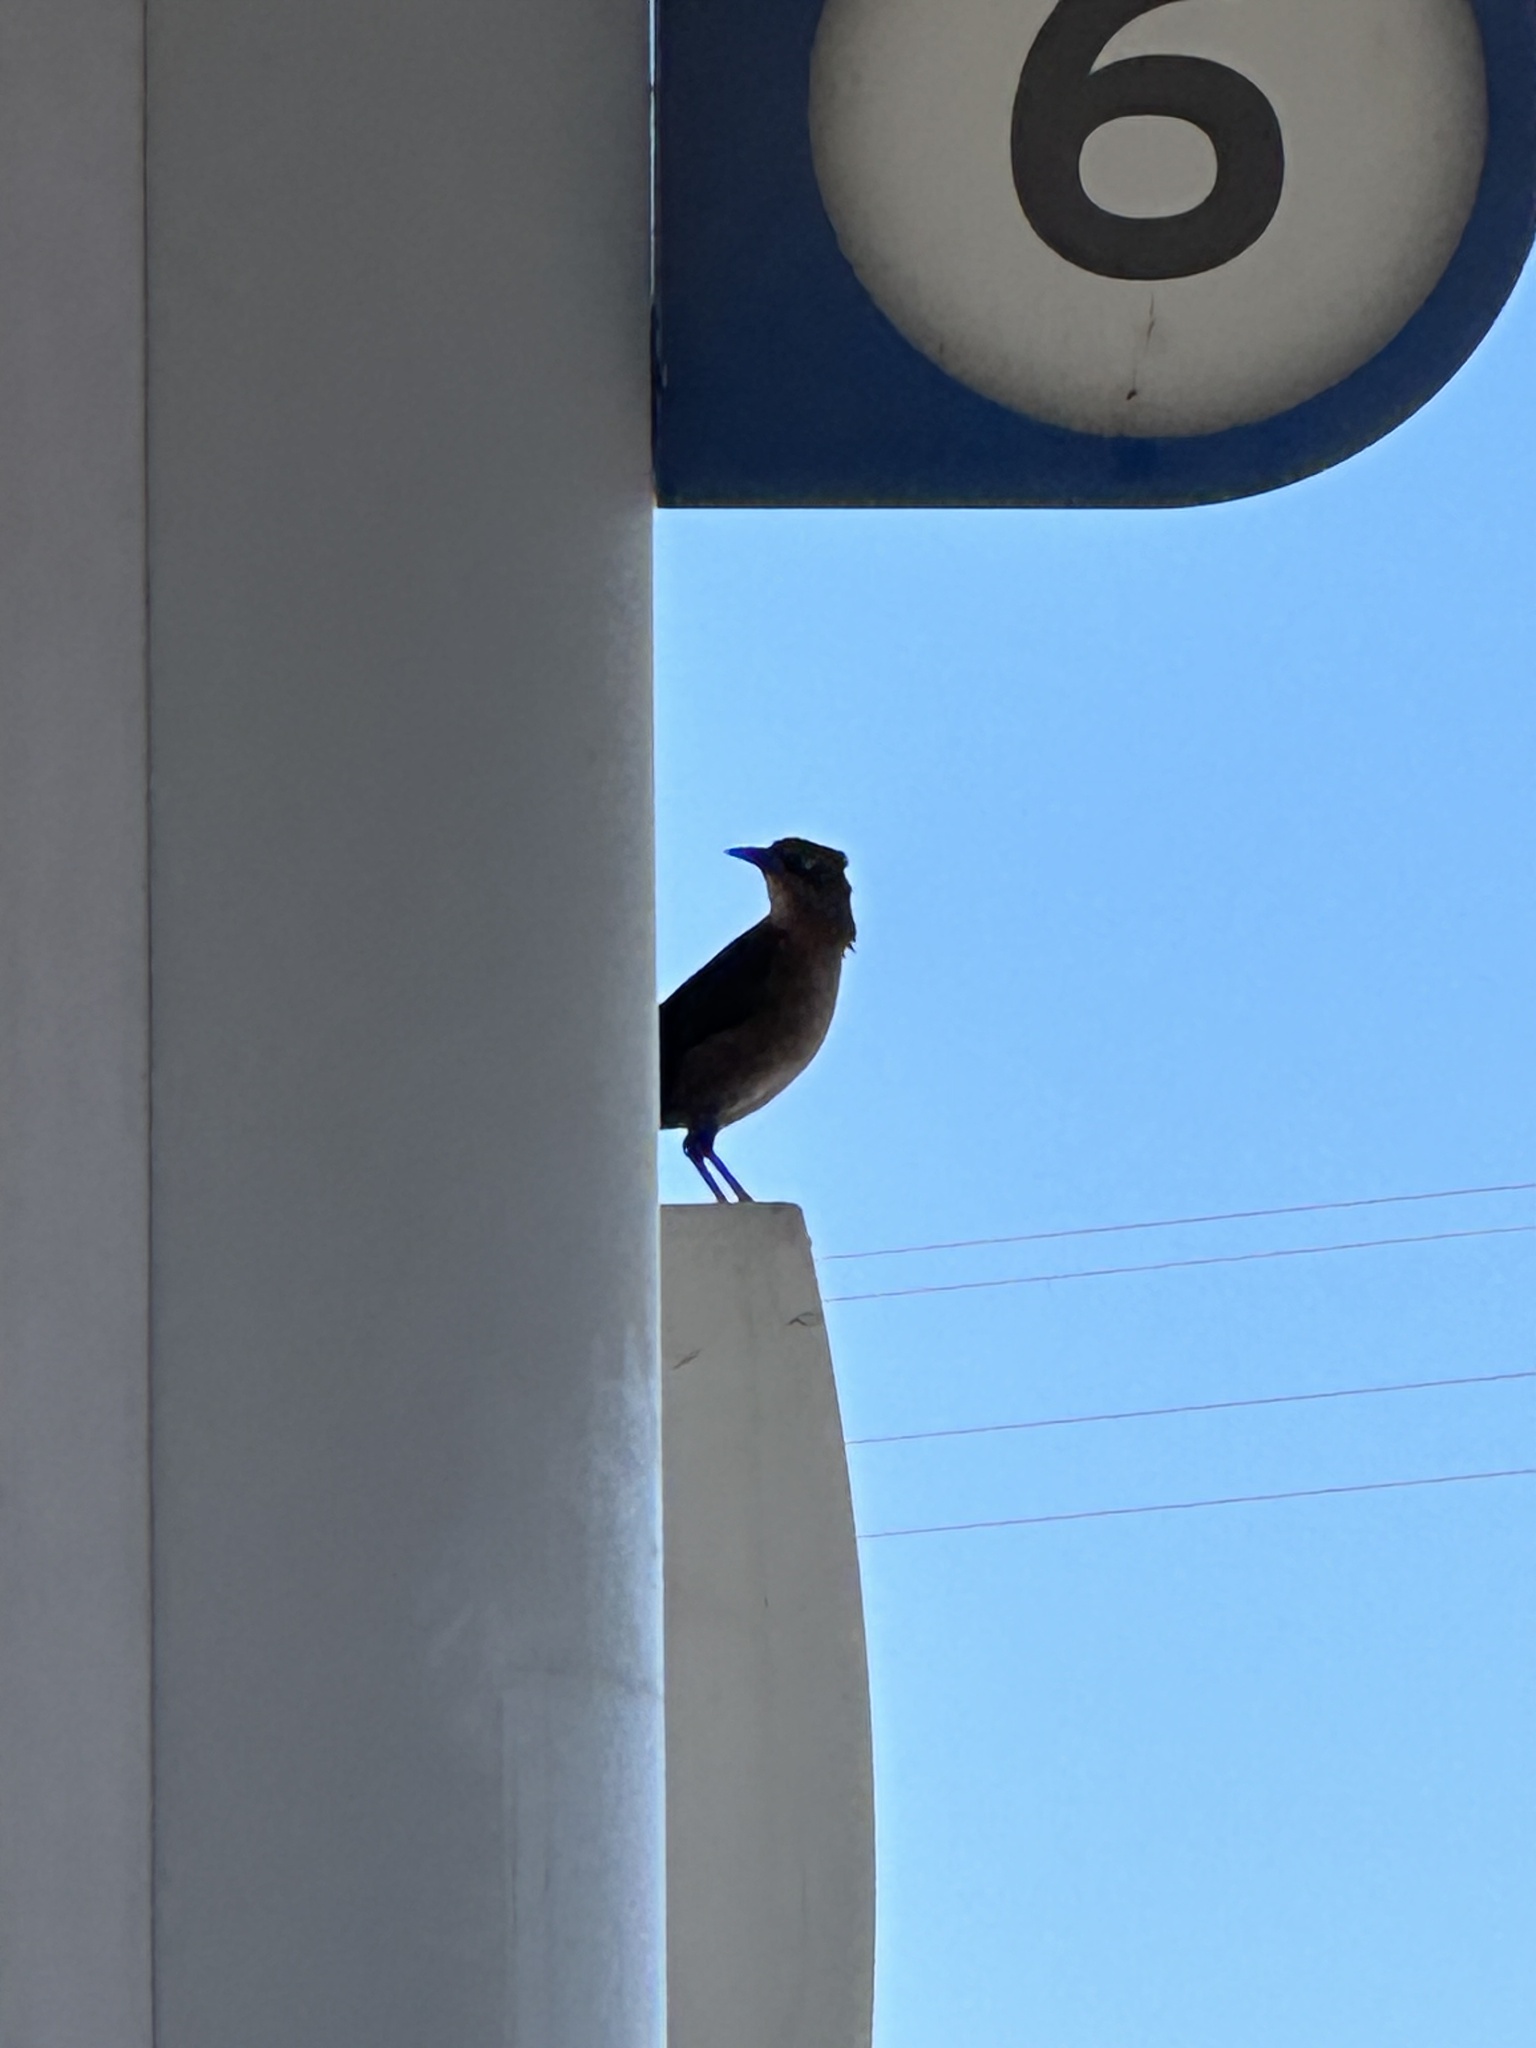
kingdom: Animalia
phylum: Chordata
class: Aves
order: Passeriformes
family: Icteridae
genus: Quiscalus
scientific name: Quiscalus mexicanus
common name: Great-tailed grackle
